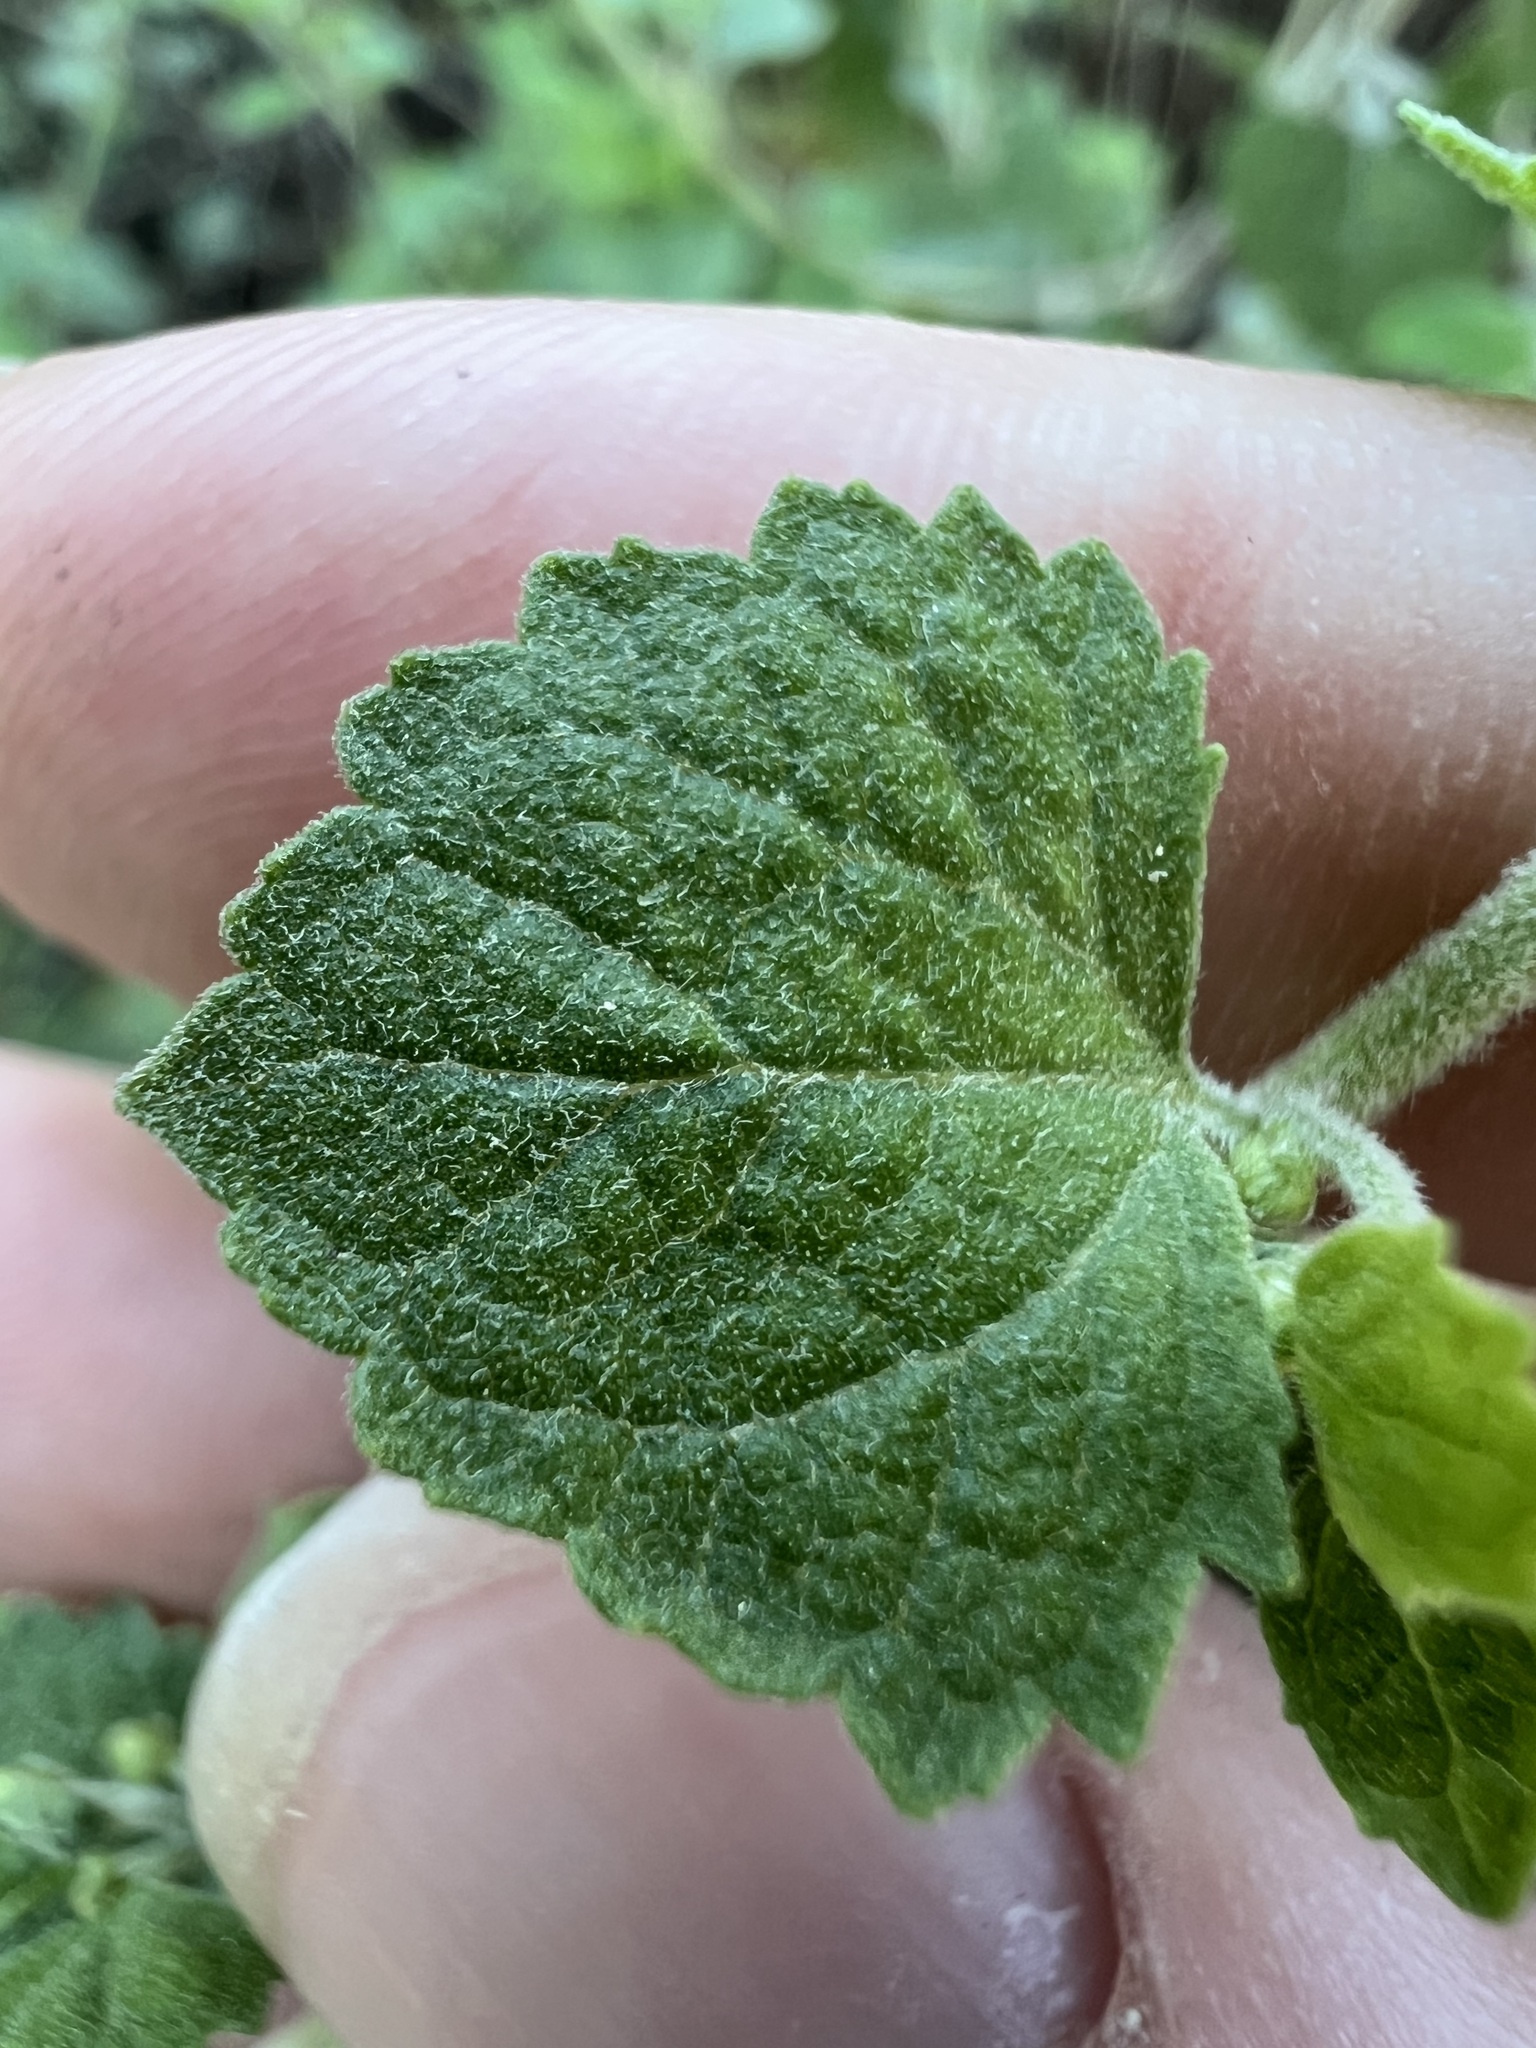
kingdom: Plantae
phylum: Tracheophyta
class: Magnoliopsida
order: Asterales
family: Asteraceae
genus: Brickellia
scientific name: Brickellia californica
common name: California brickellbush
